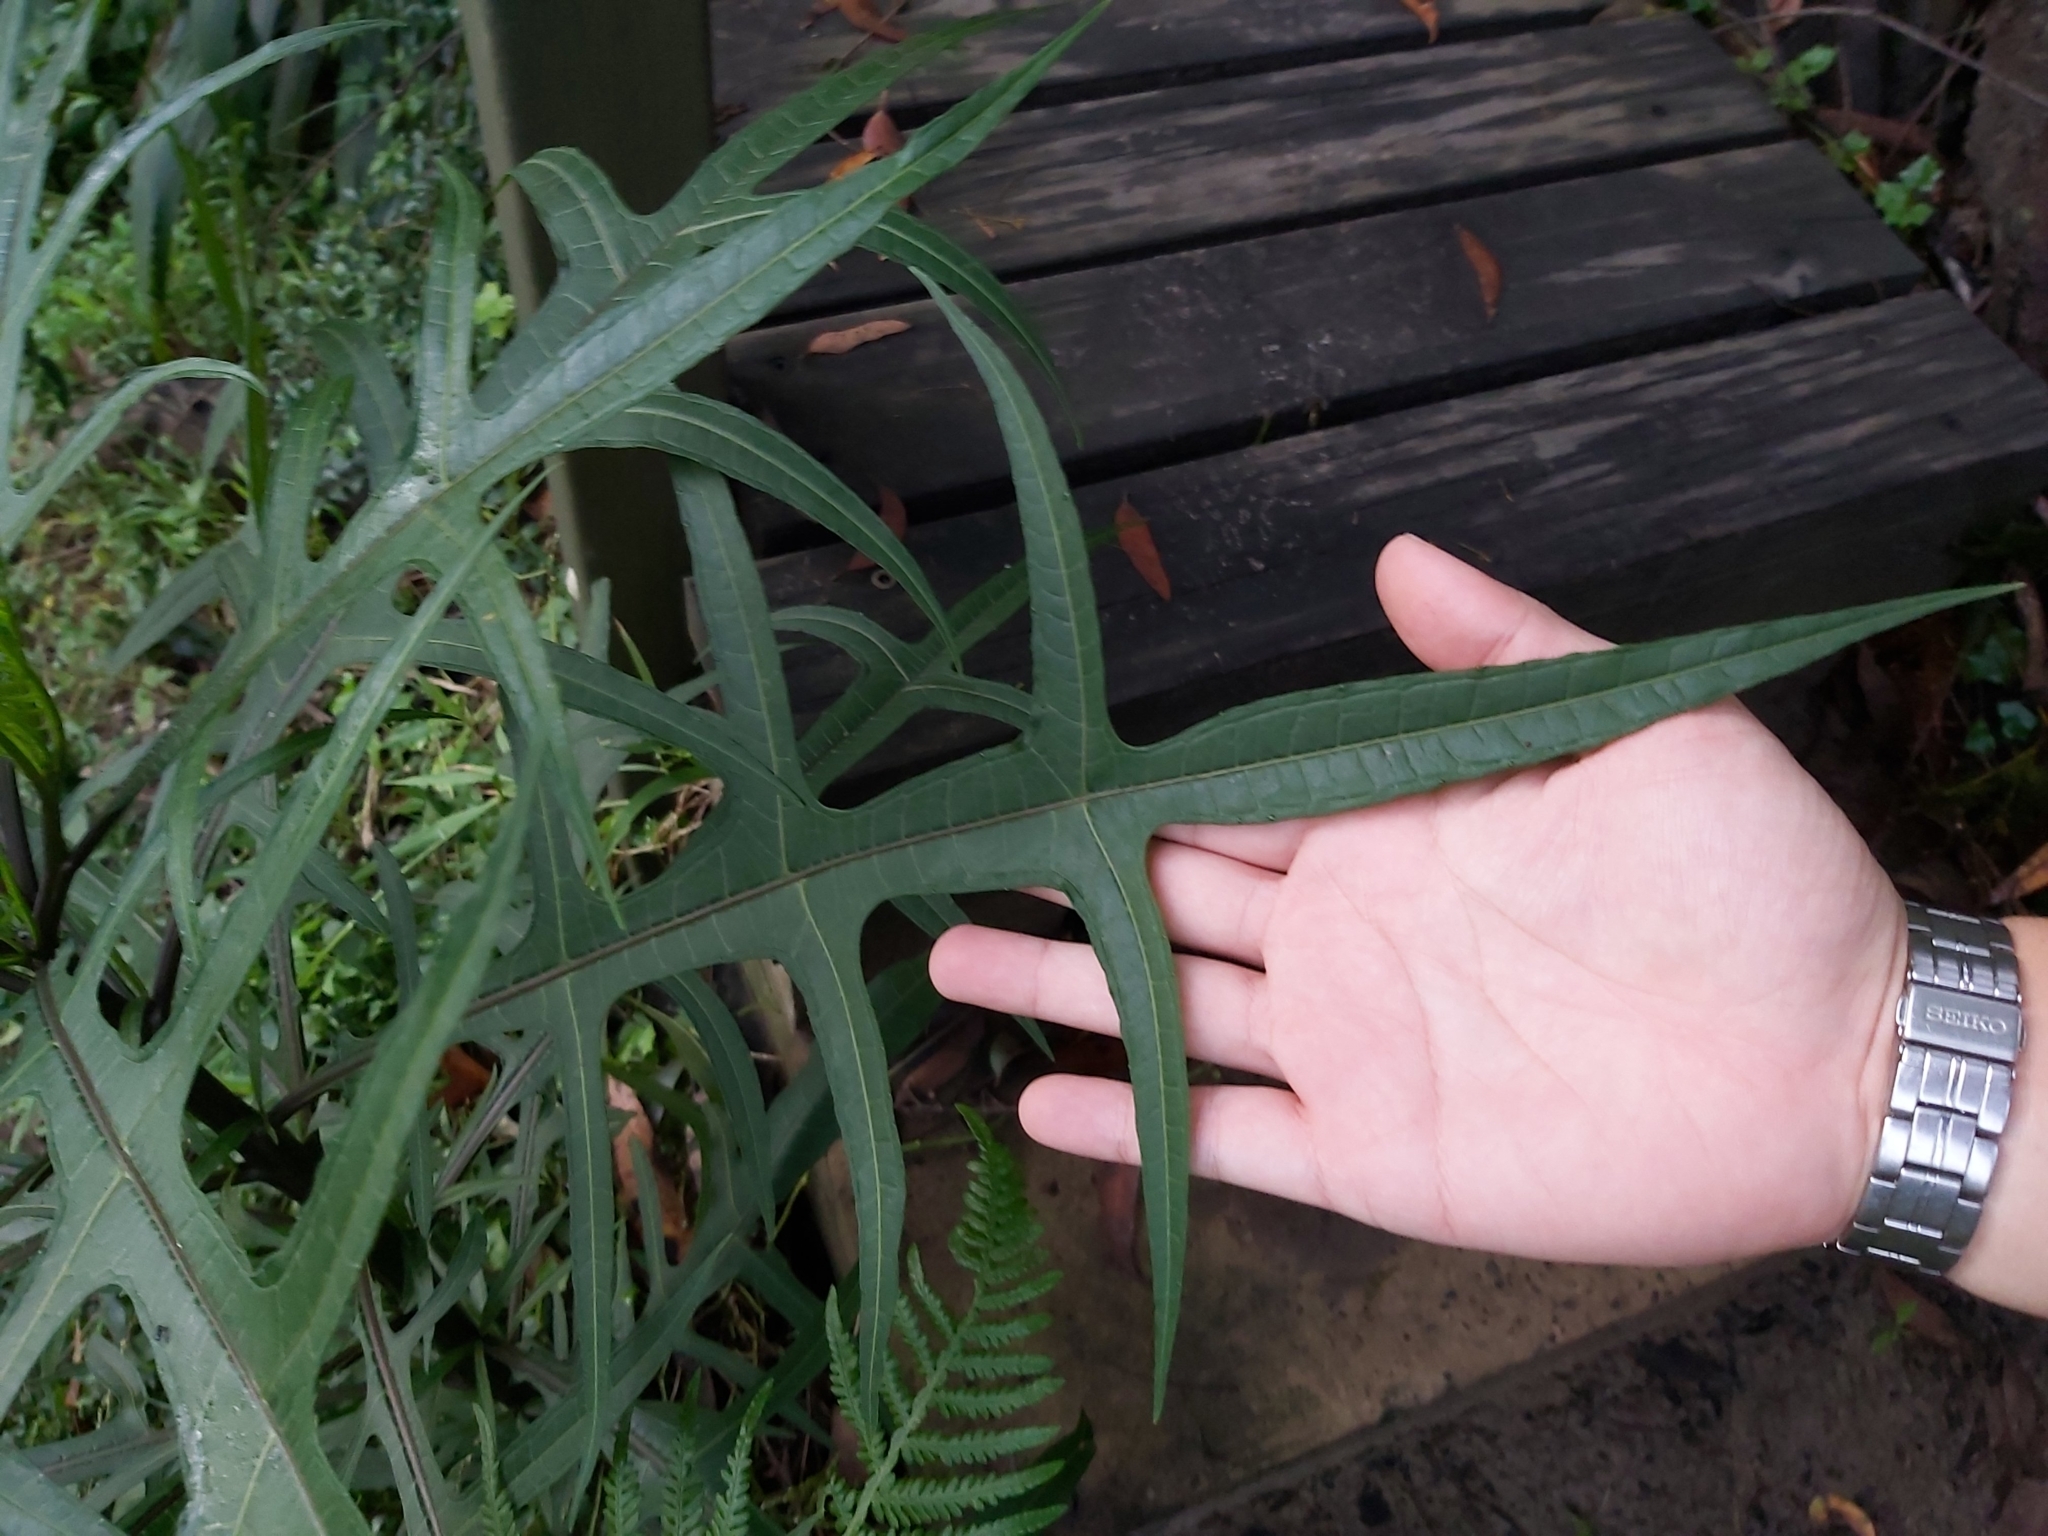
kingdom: Plantae
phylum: Tracheophyta
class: Magnoliopsida
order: Solanales
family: Solanaceae
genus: Solanum
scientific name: Solanum
